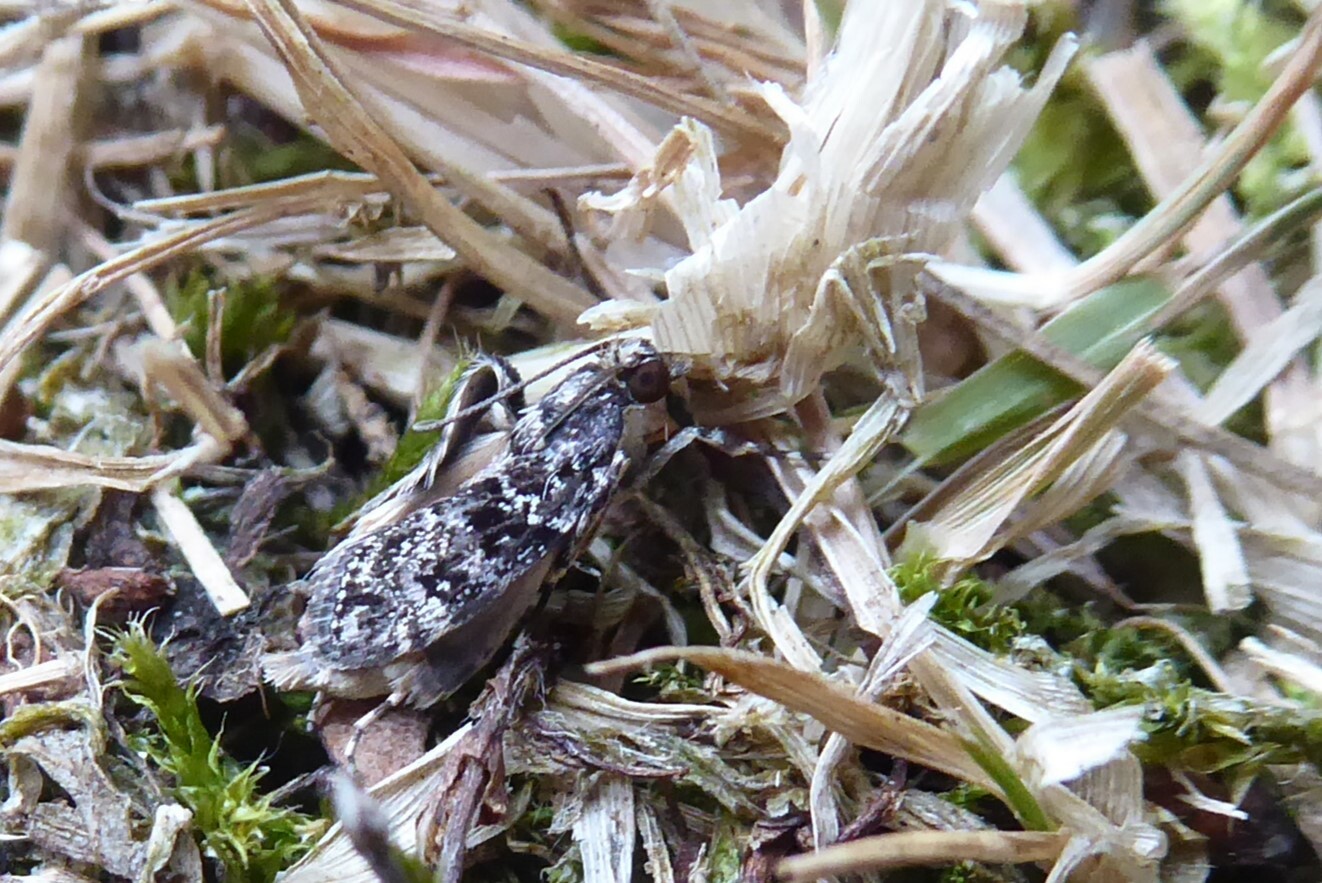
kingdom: Animalia
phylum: Arthropoda
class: Insecta
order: Lepidoptera
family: Crambidae
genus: Eudonia
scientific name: Eudonia philerga
